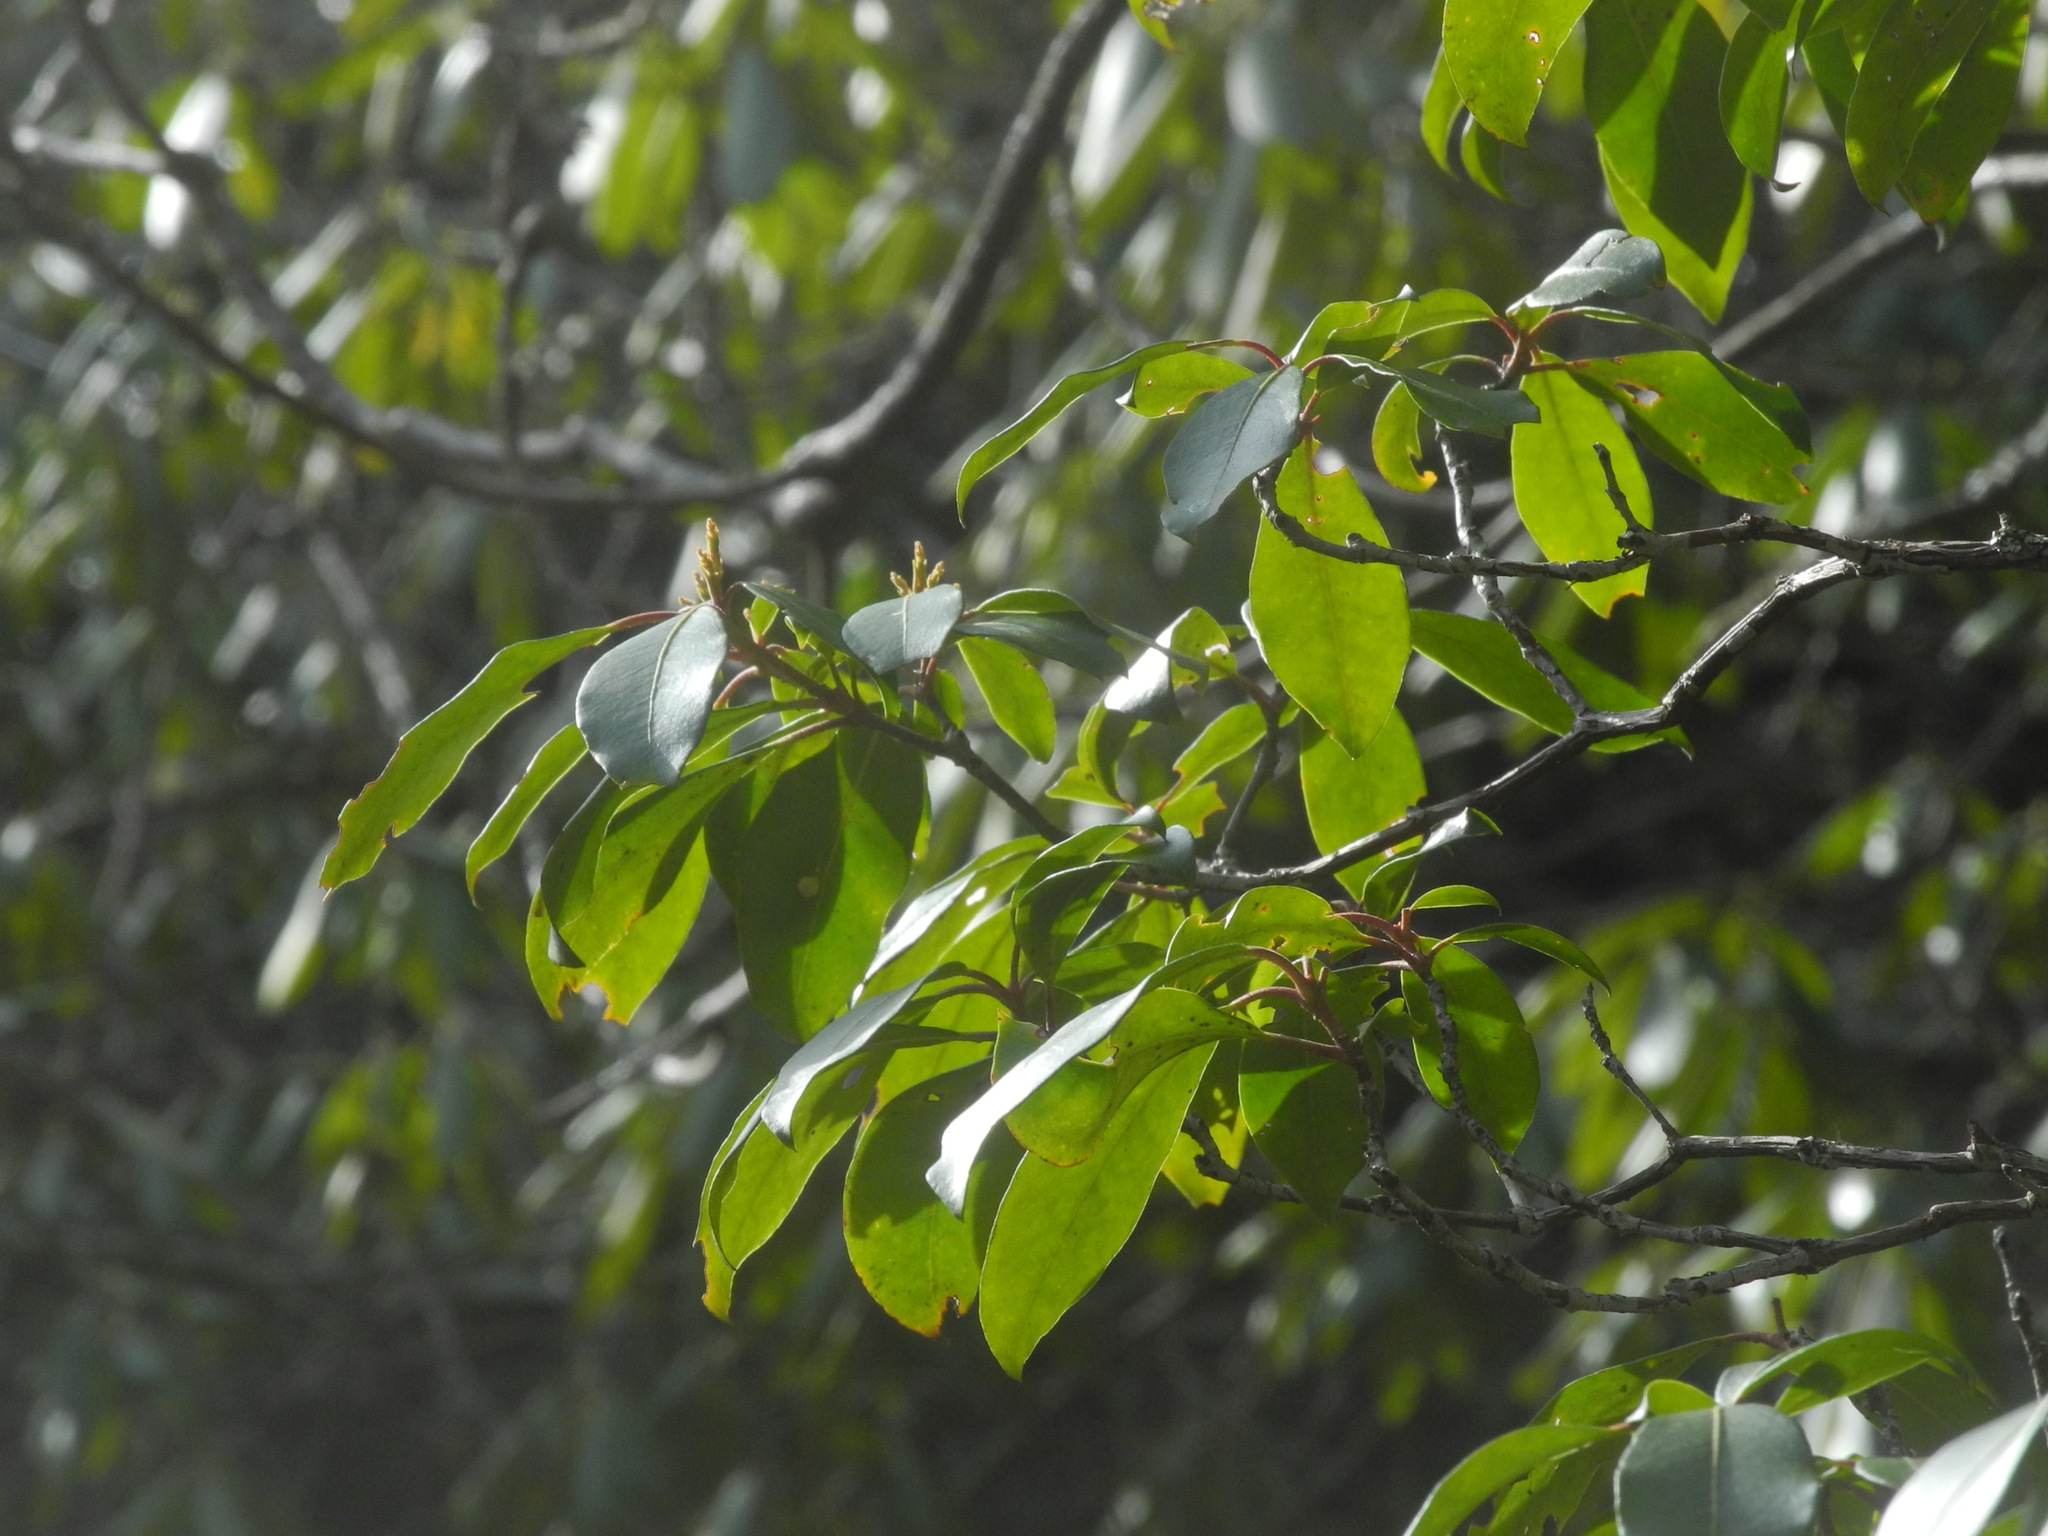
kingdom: Plantae
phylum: Tracheophyta
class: Magnoliopsida
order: Ericales
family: Ericaceae
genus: Kalmia
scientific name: Kalmia latifolia
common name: Mountain-laurel
